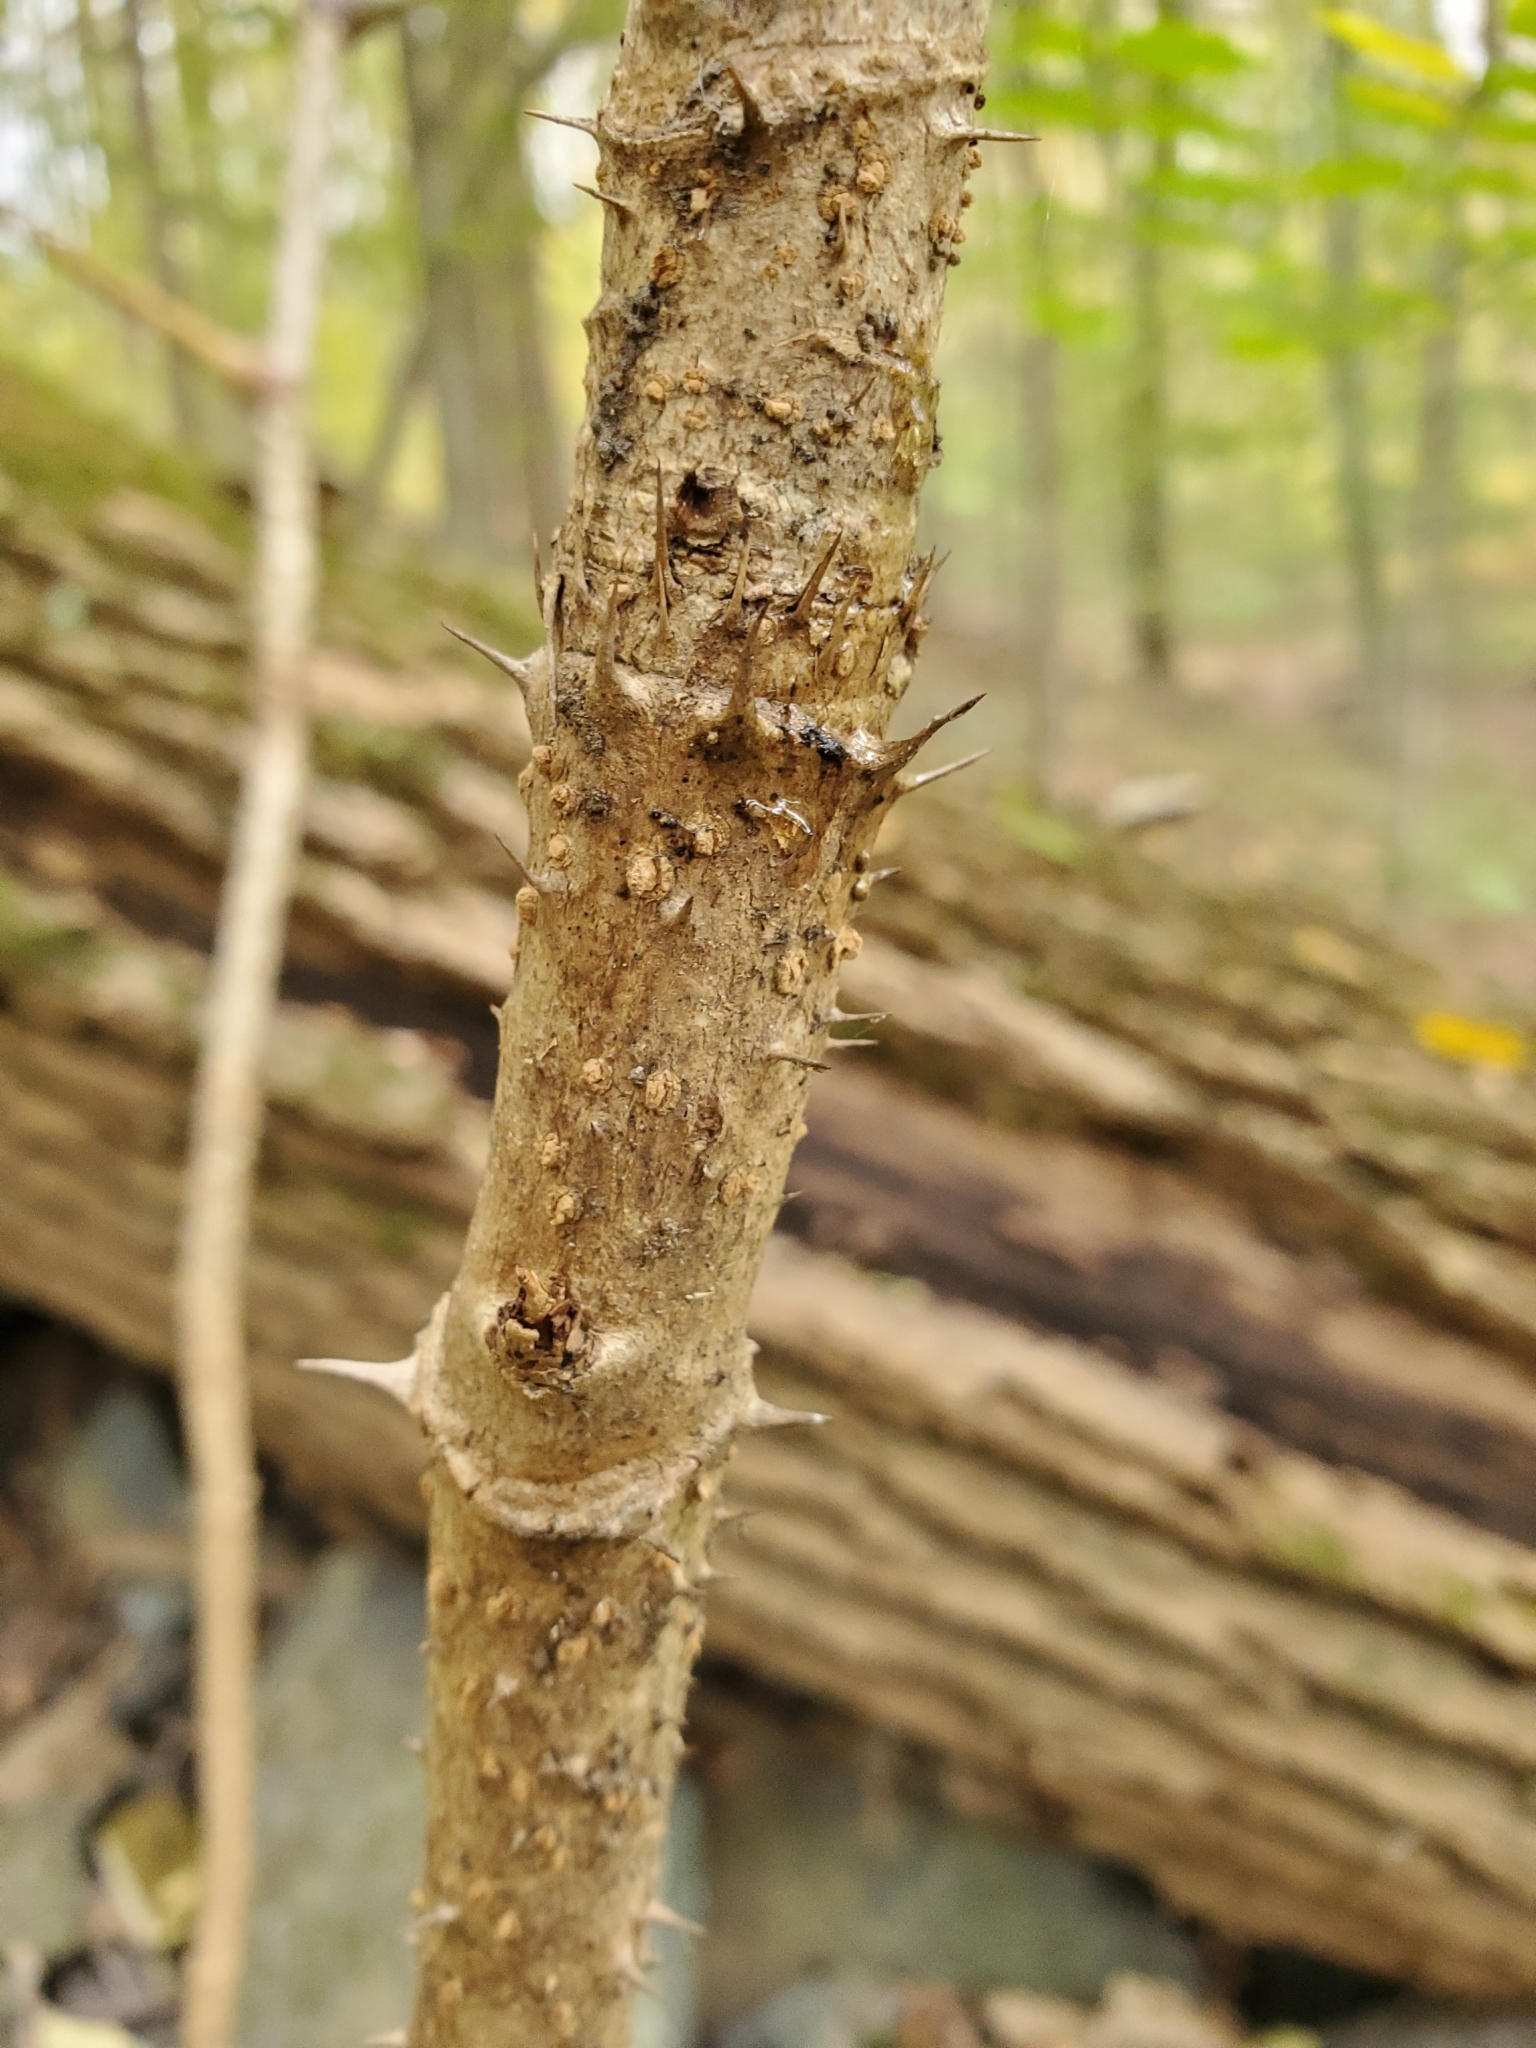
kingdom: Plantae
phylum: Tracheophyta
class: Magnoliopsida
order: Apiales
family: Araliaceae
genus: Aralia
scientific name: Aralia spinosa
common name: Hercules'-club
